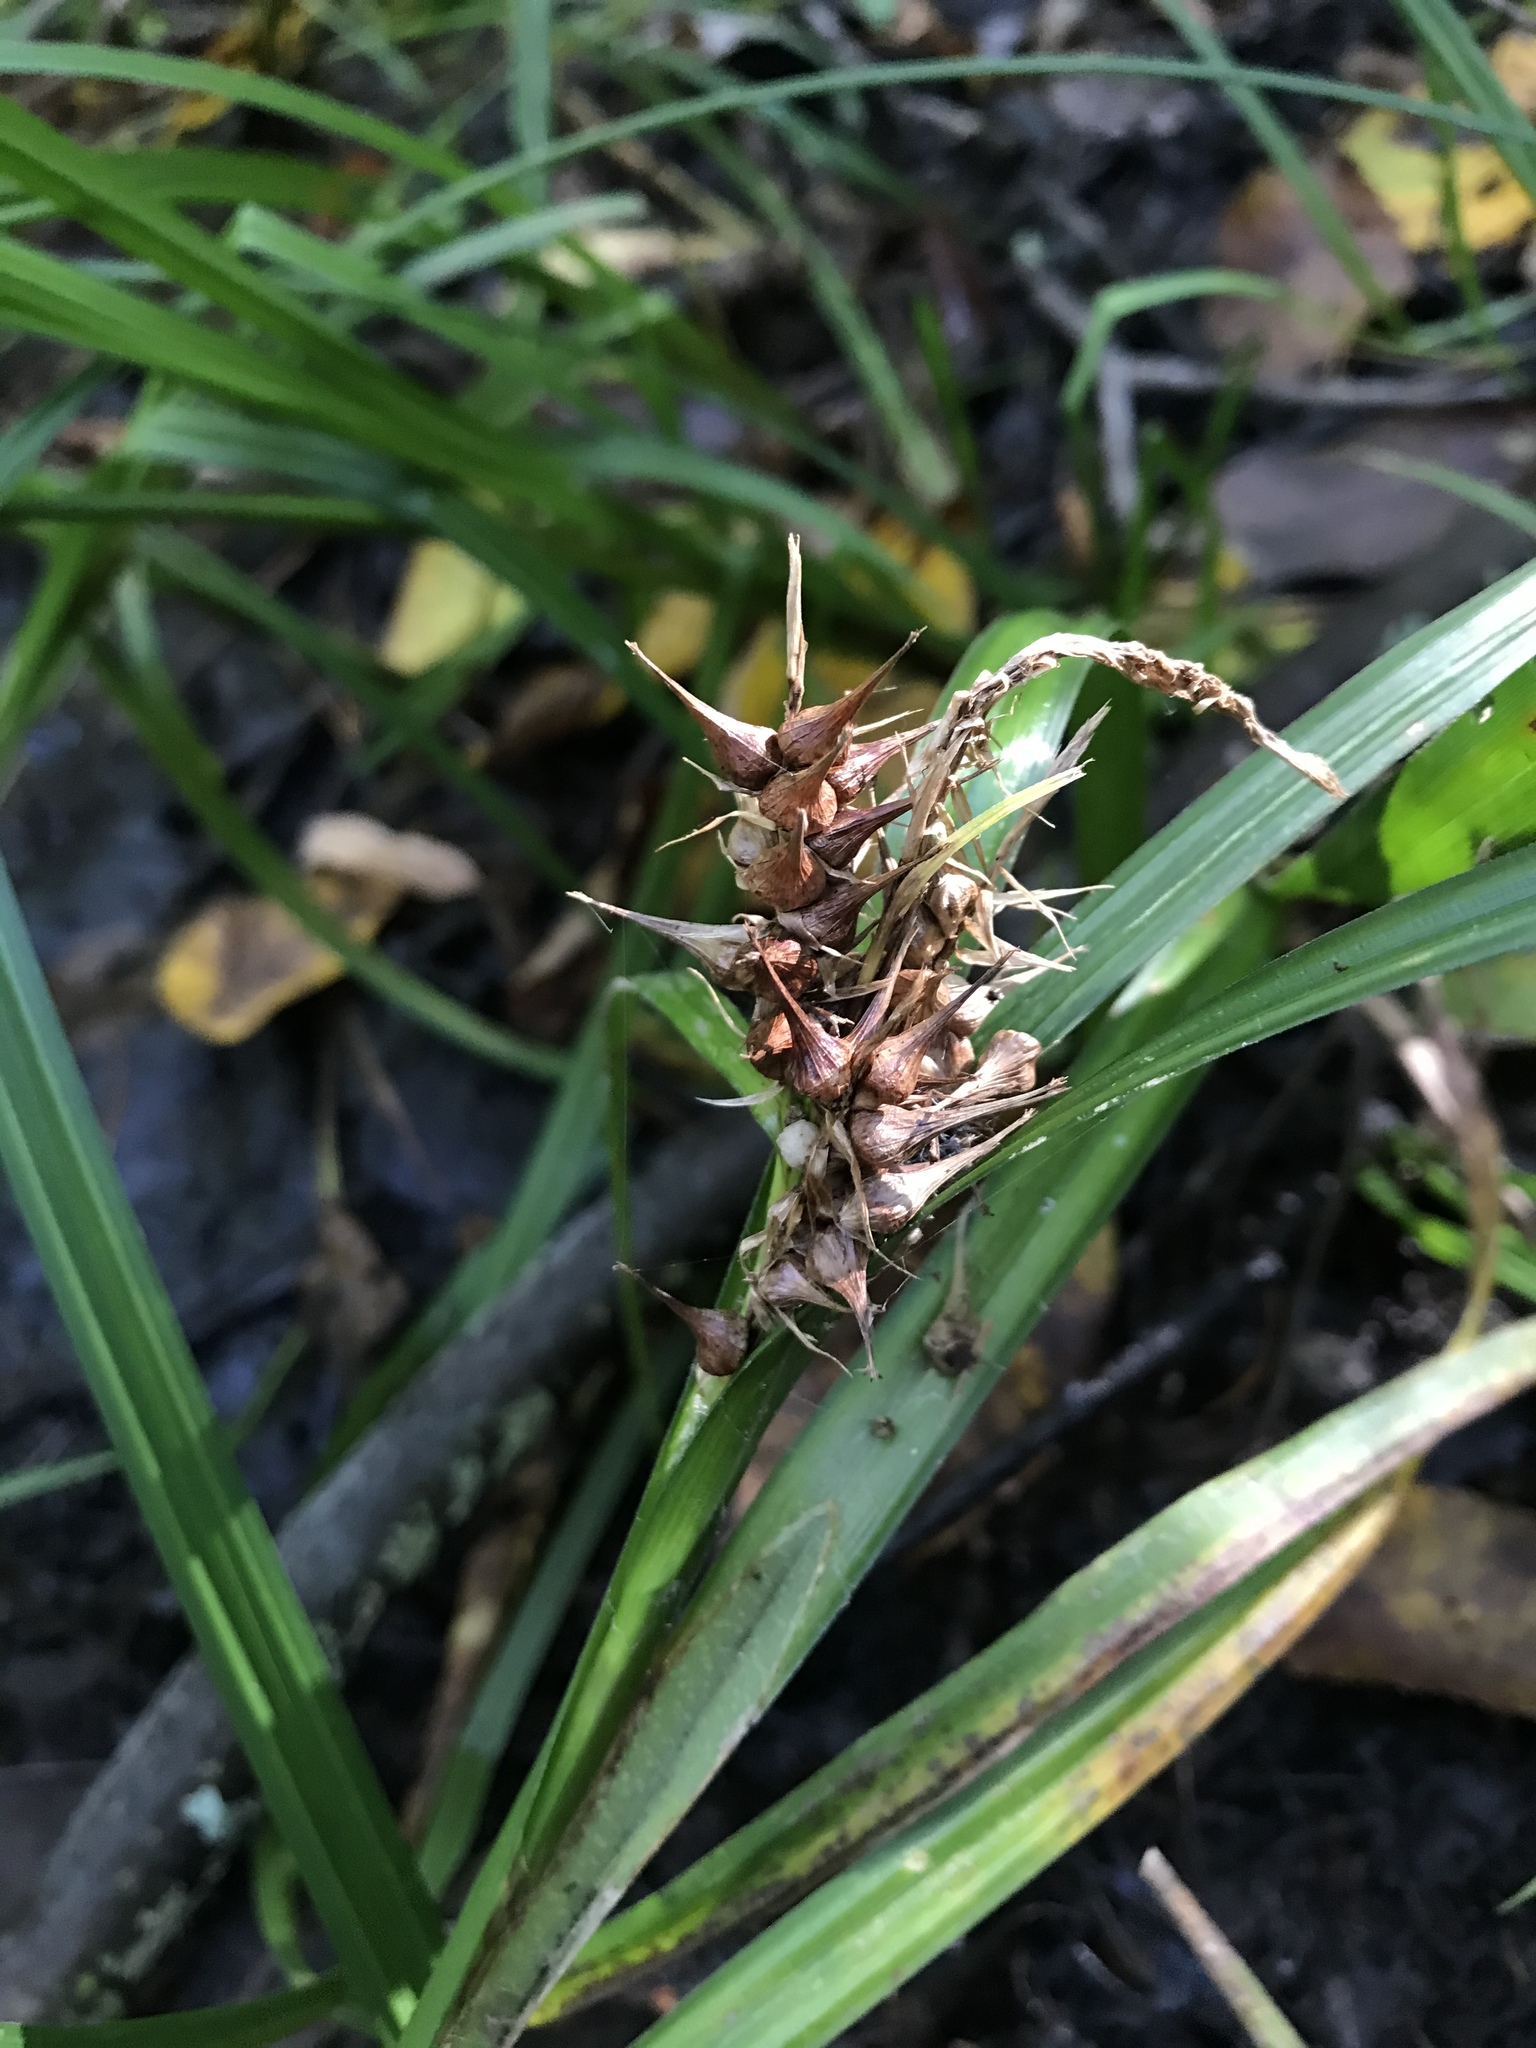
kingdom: Plantae
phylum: Tracheophyta
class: Liliopsida
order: Poales
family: Cyperaceae
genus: Carex
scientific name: Carex lupulina
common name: Hop sedge
